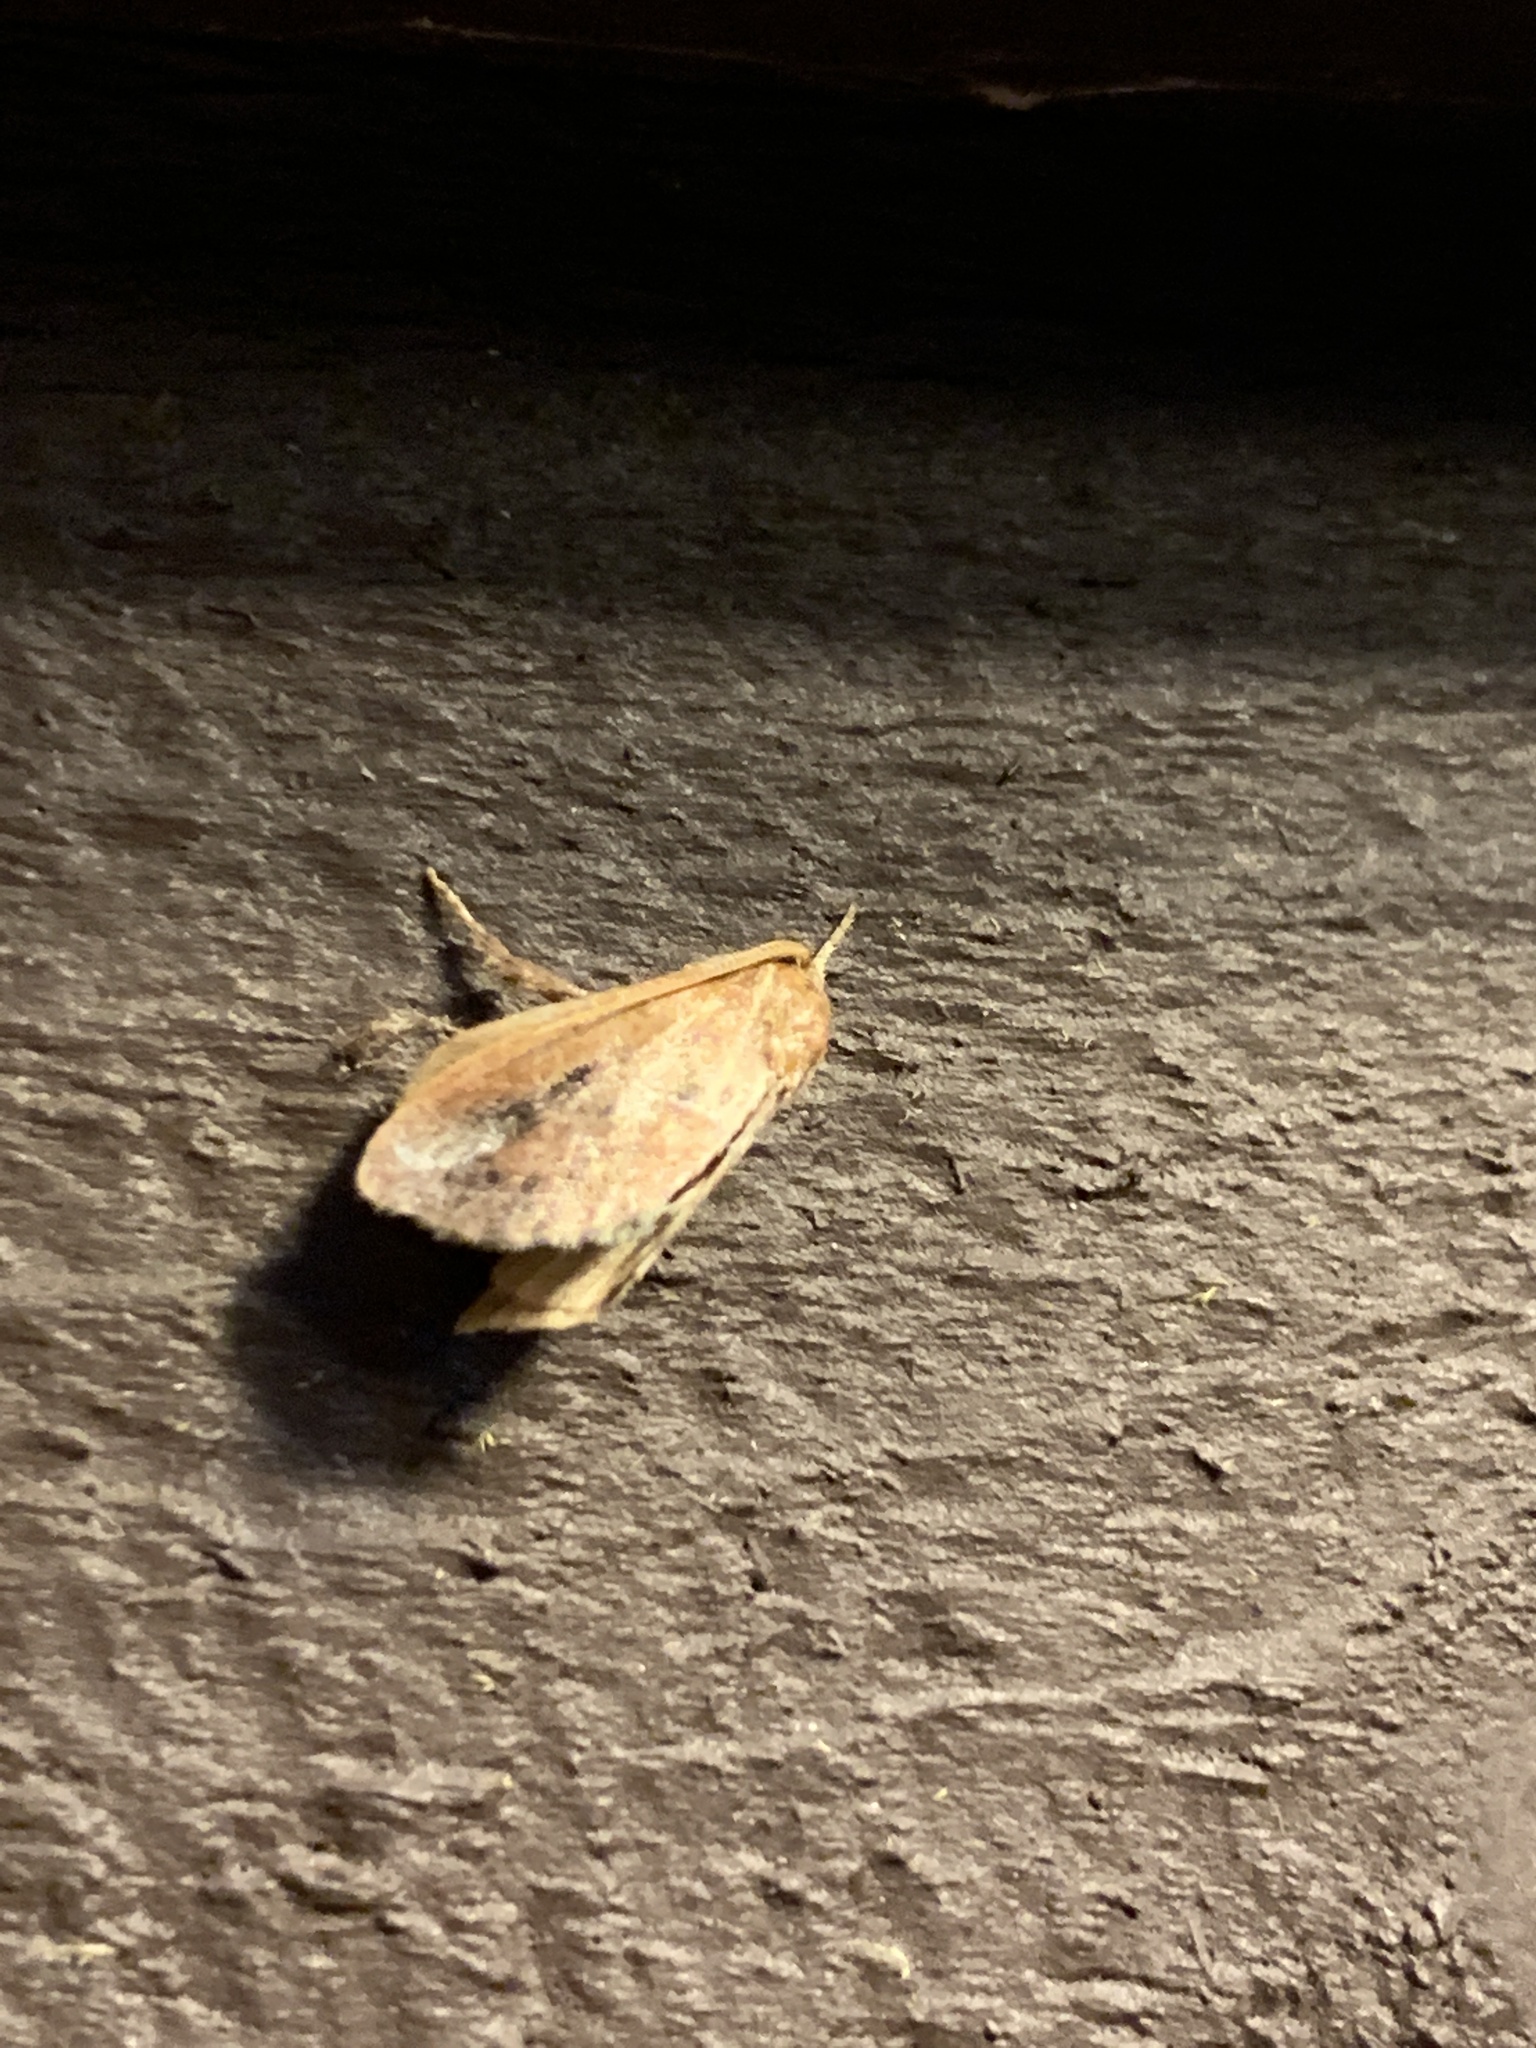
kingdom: Animalia
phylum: Arthropoda
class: Insecta
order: Lepidoptera
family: Limacodidae
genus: Adoneta
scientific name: Adoneta spinuloides
